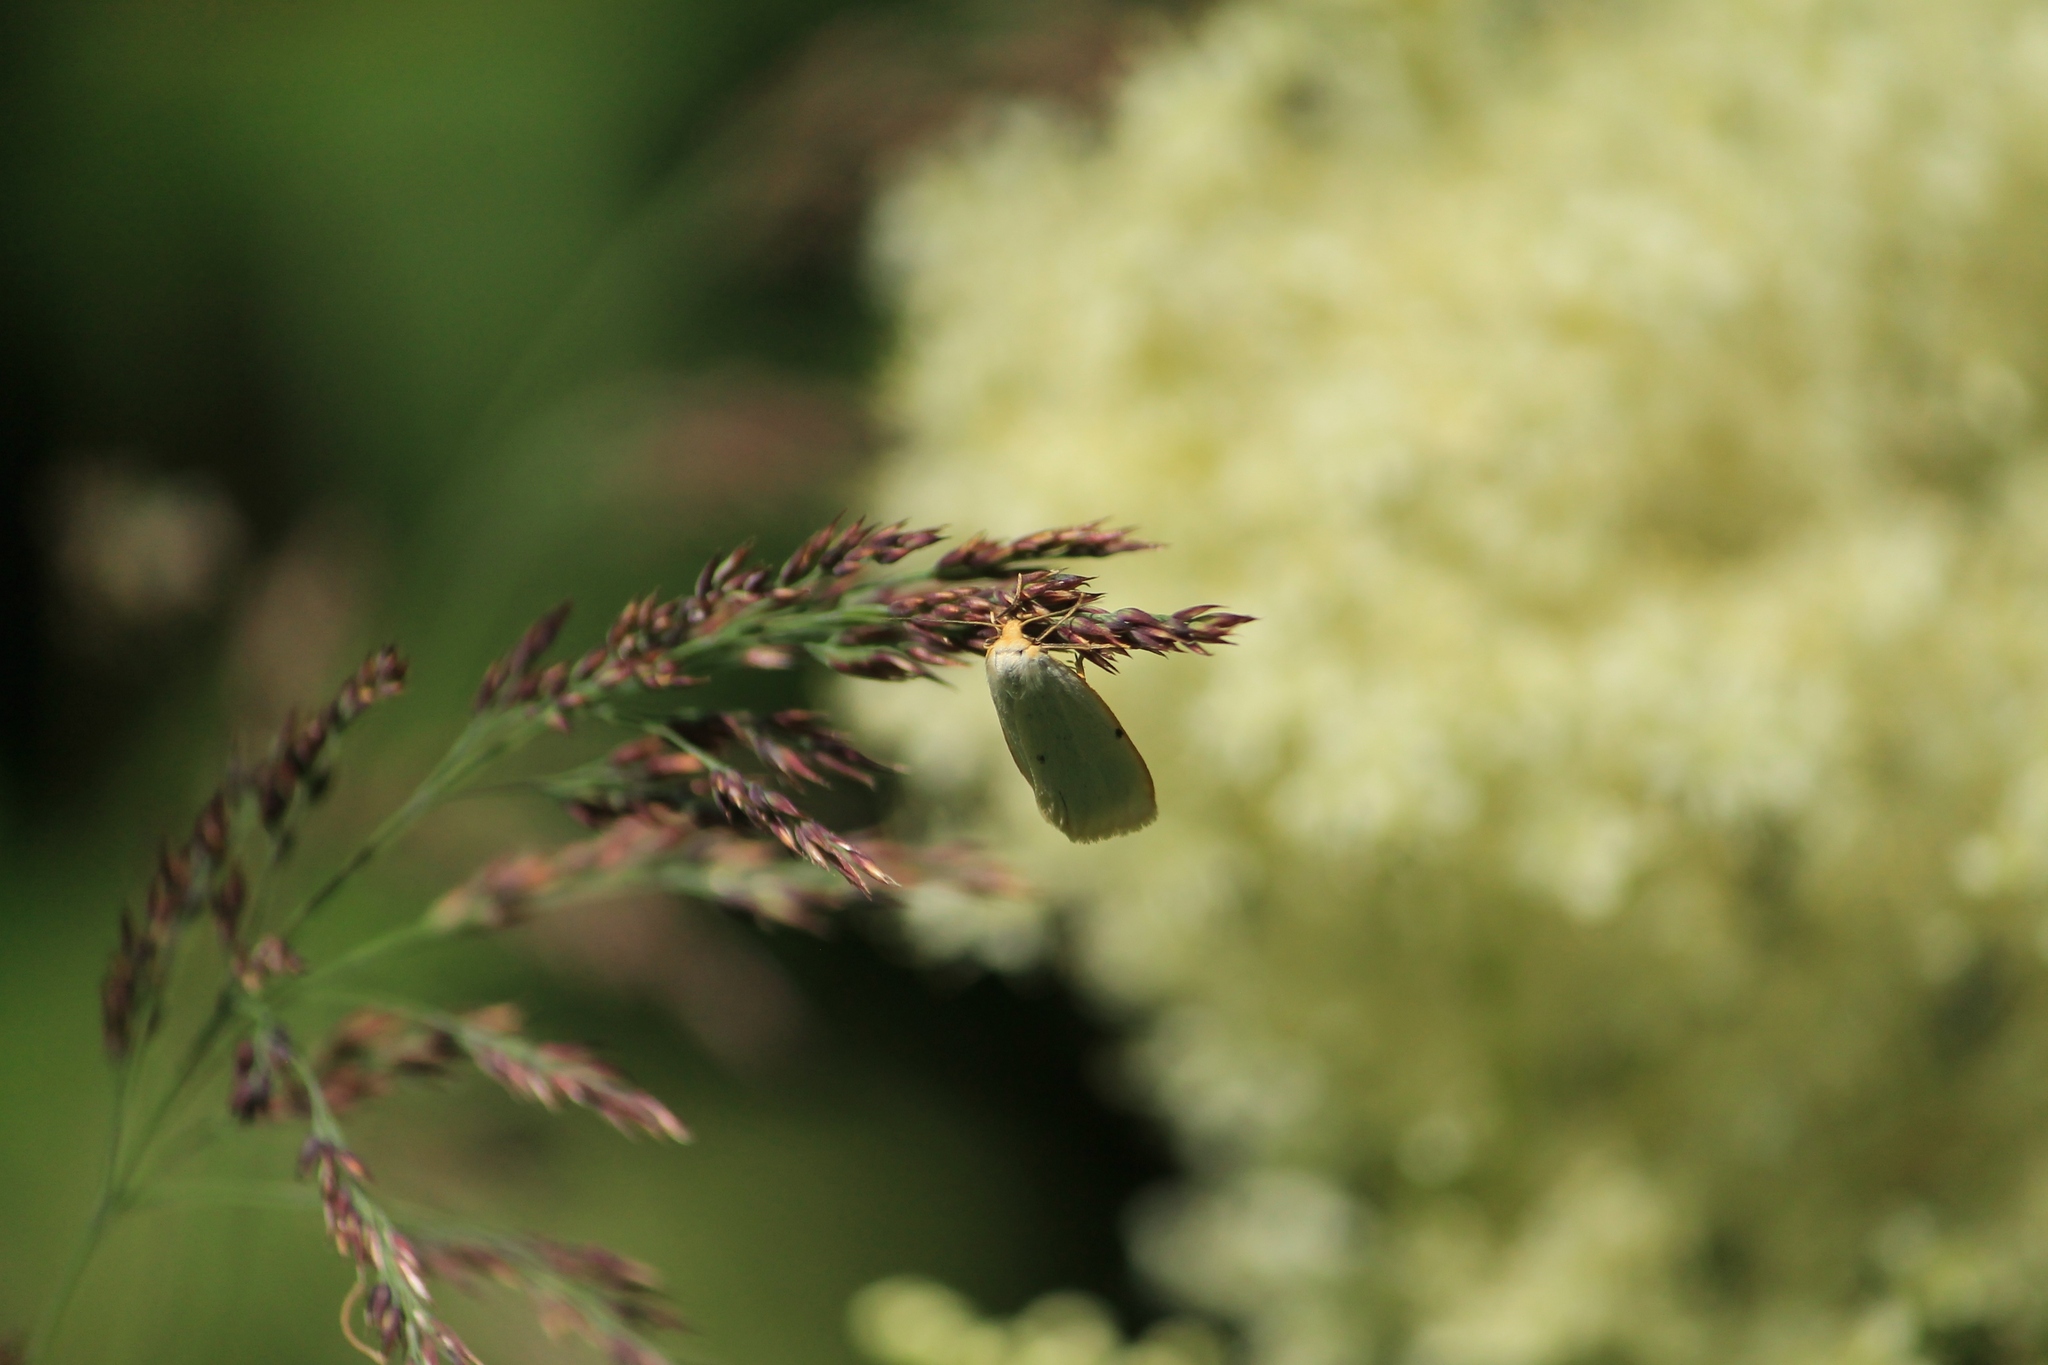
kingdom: Animalia
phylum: Arthropoda
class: Insecta
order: Lepidoptera
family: Erebidae
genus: Cybosia
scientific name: Cybosia mesomella
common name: Four-dotted footman
